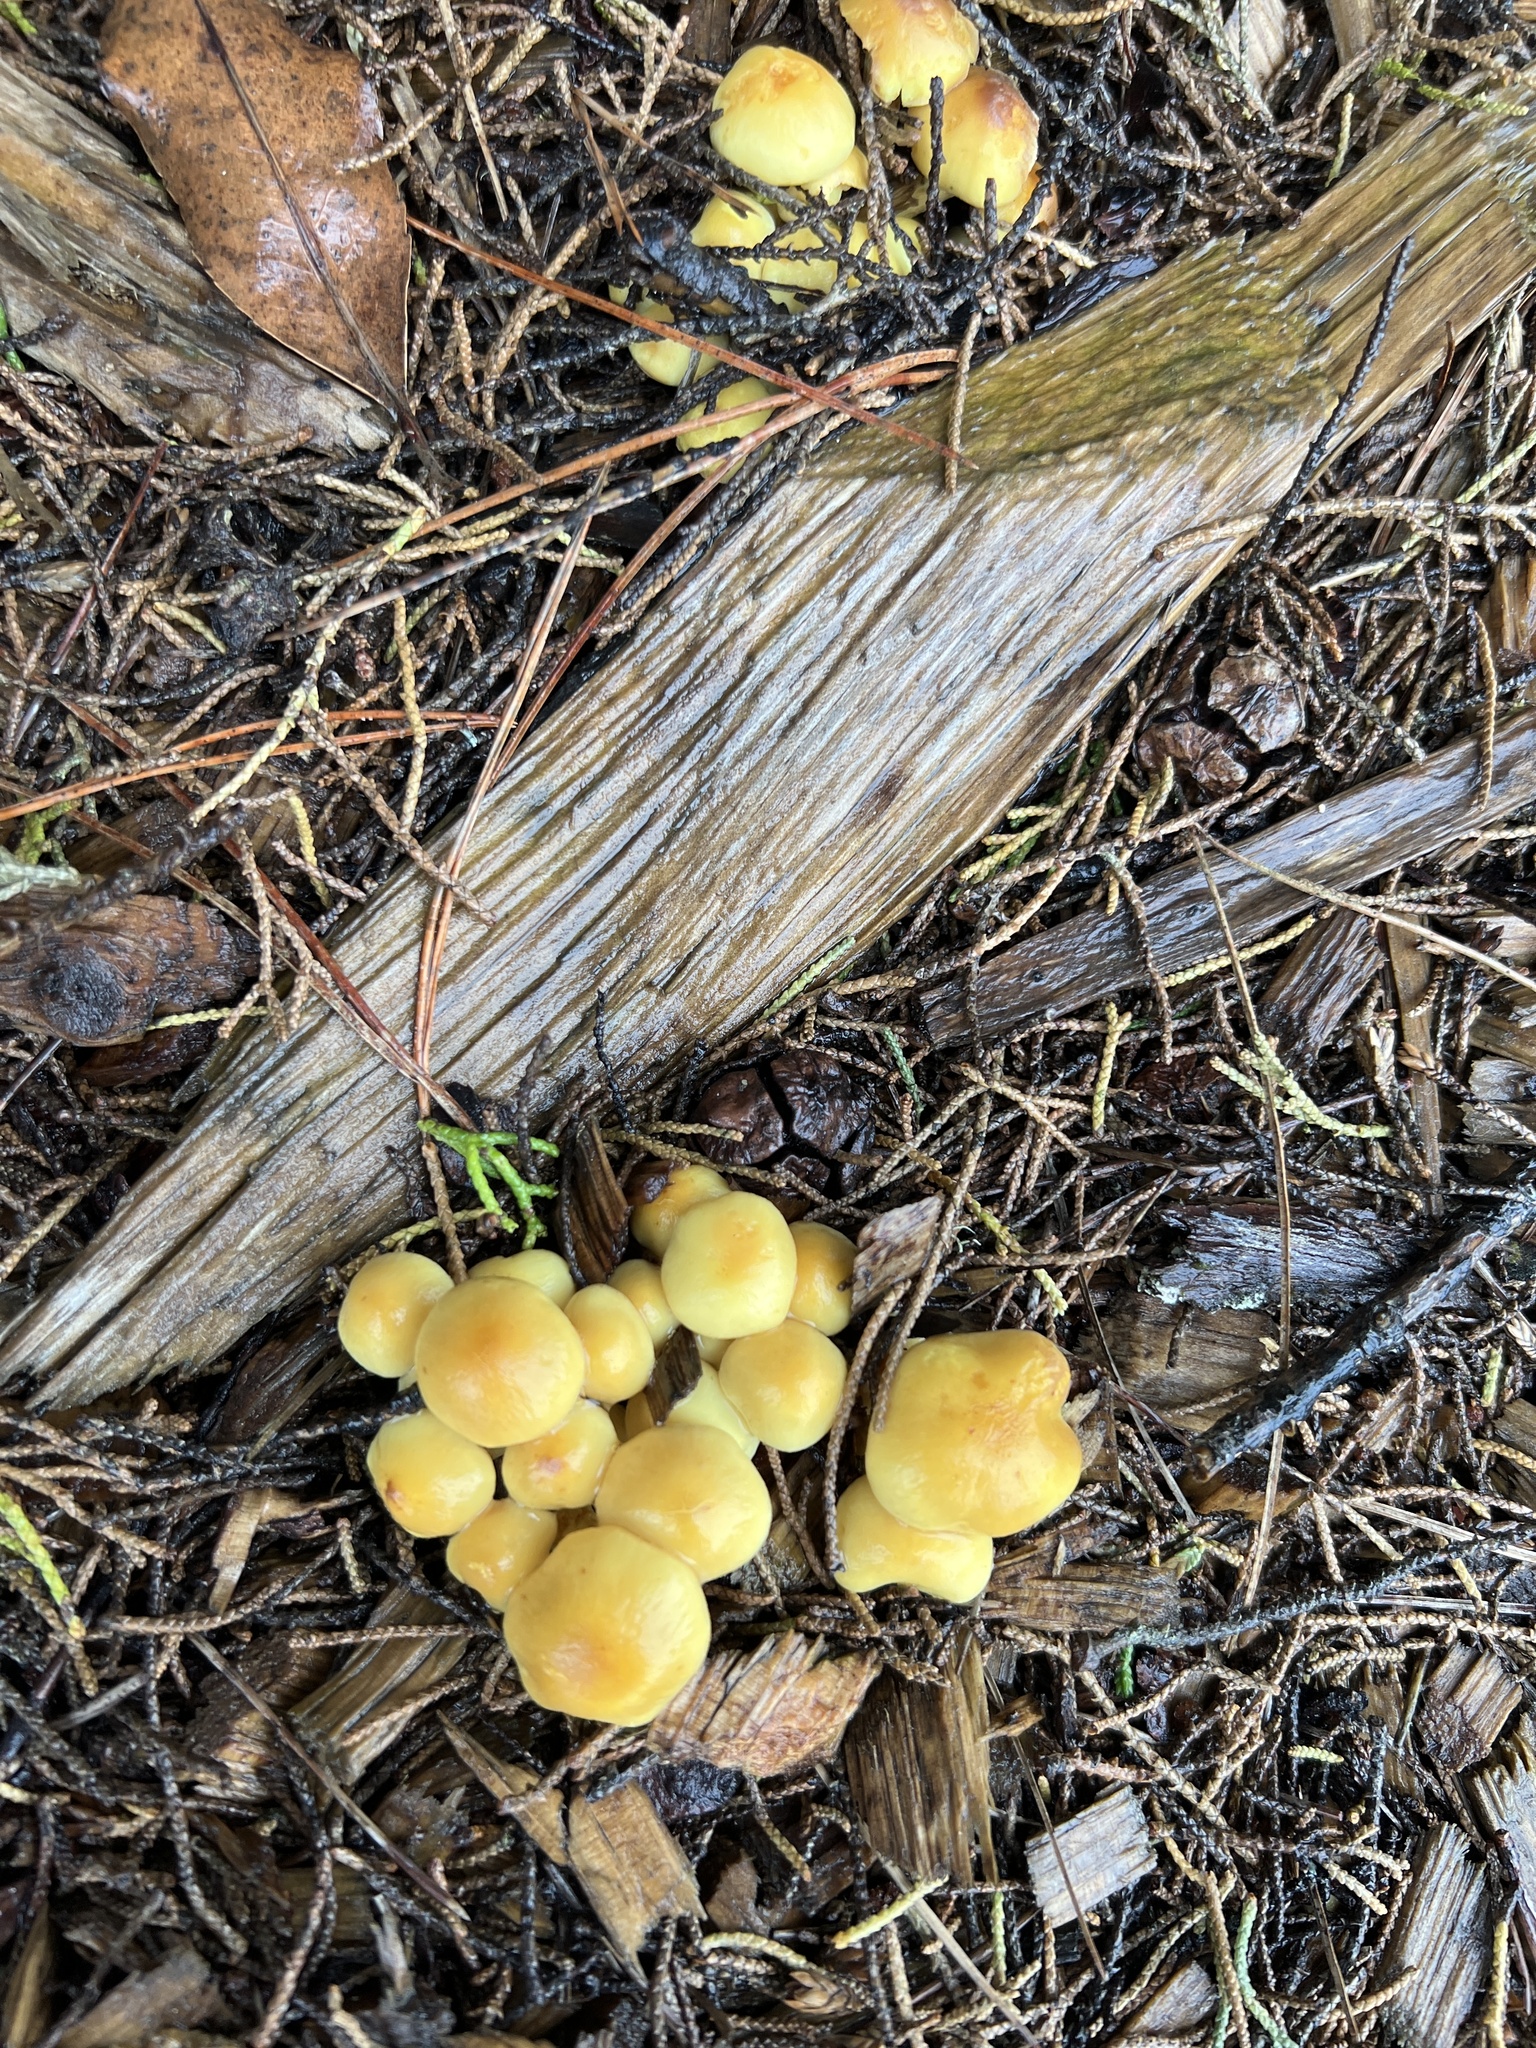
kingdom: Fungi
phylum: Basidiomycota
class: Agaricomycetes
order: Agaricales
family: Strophariaceae
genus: Hypholoma
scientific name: Hypholoma fasciculare
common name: Sulphur tuft
